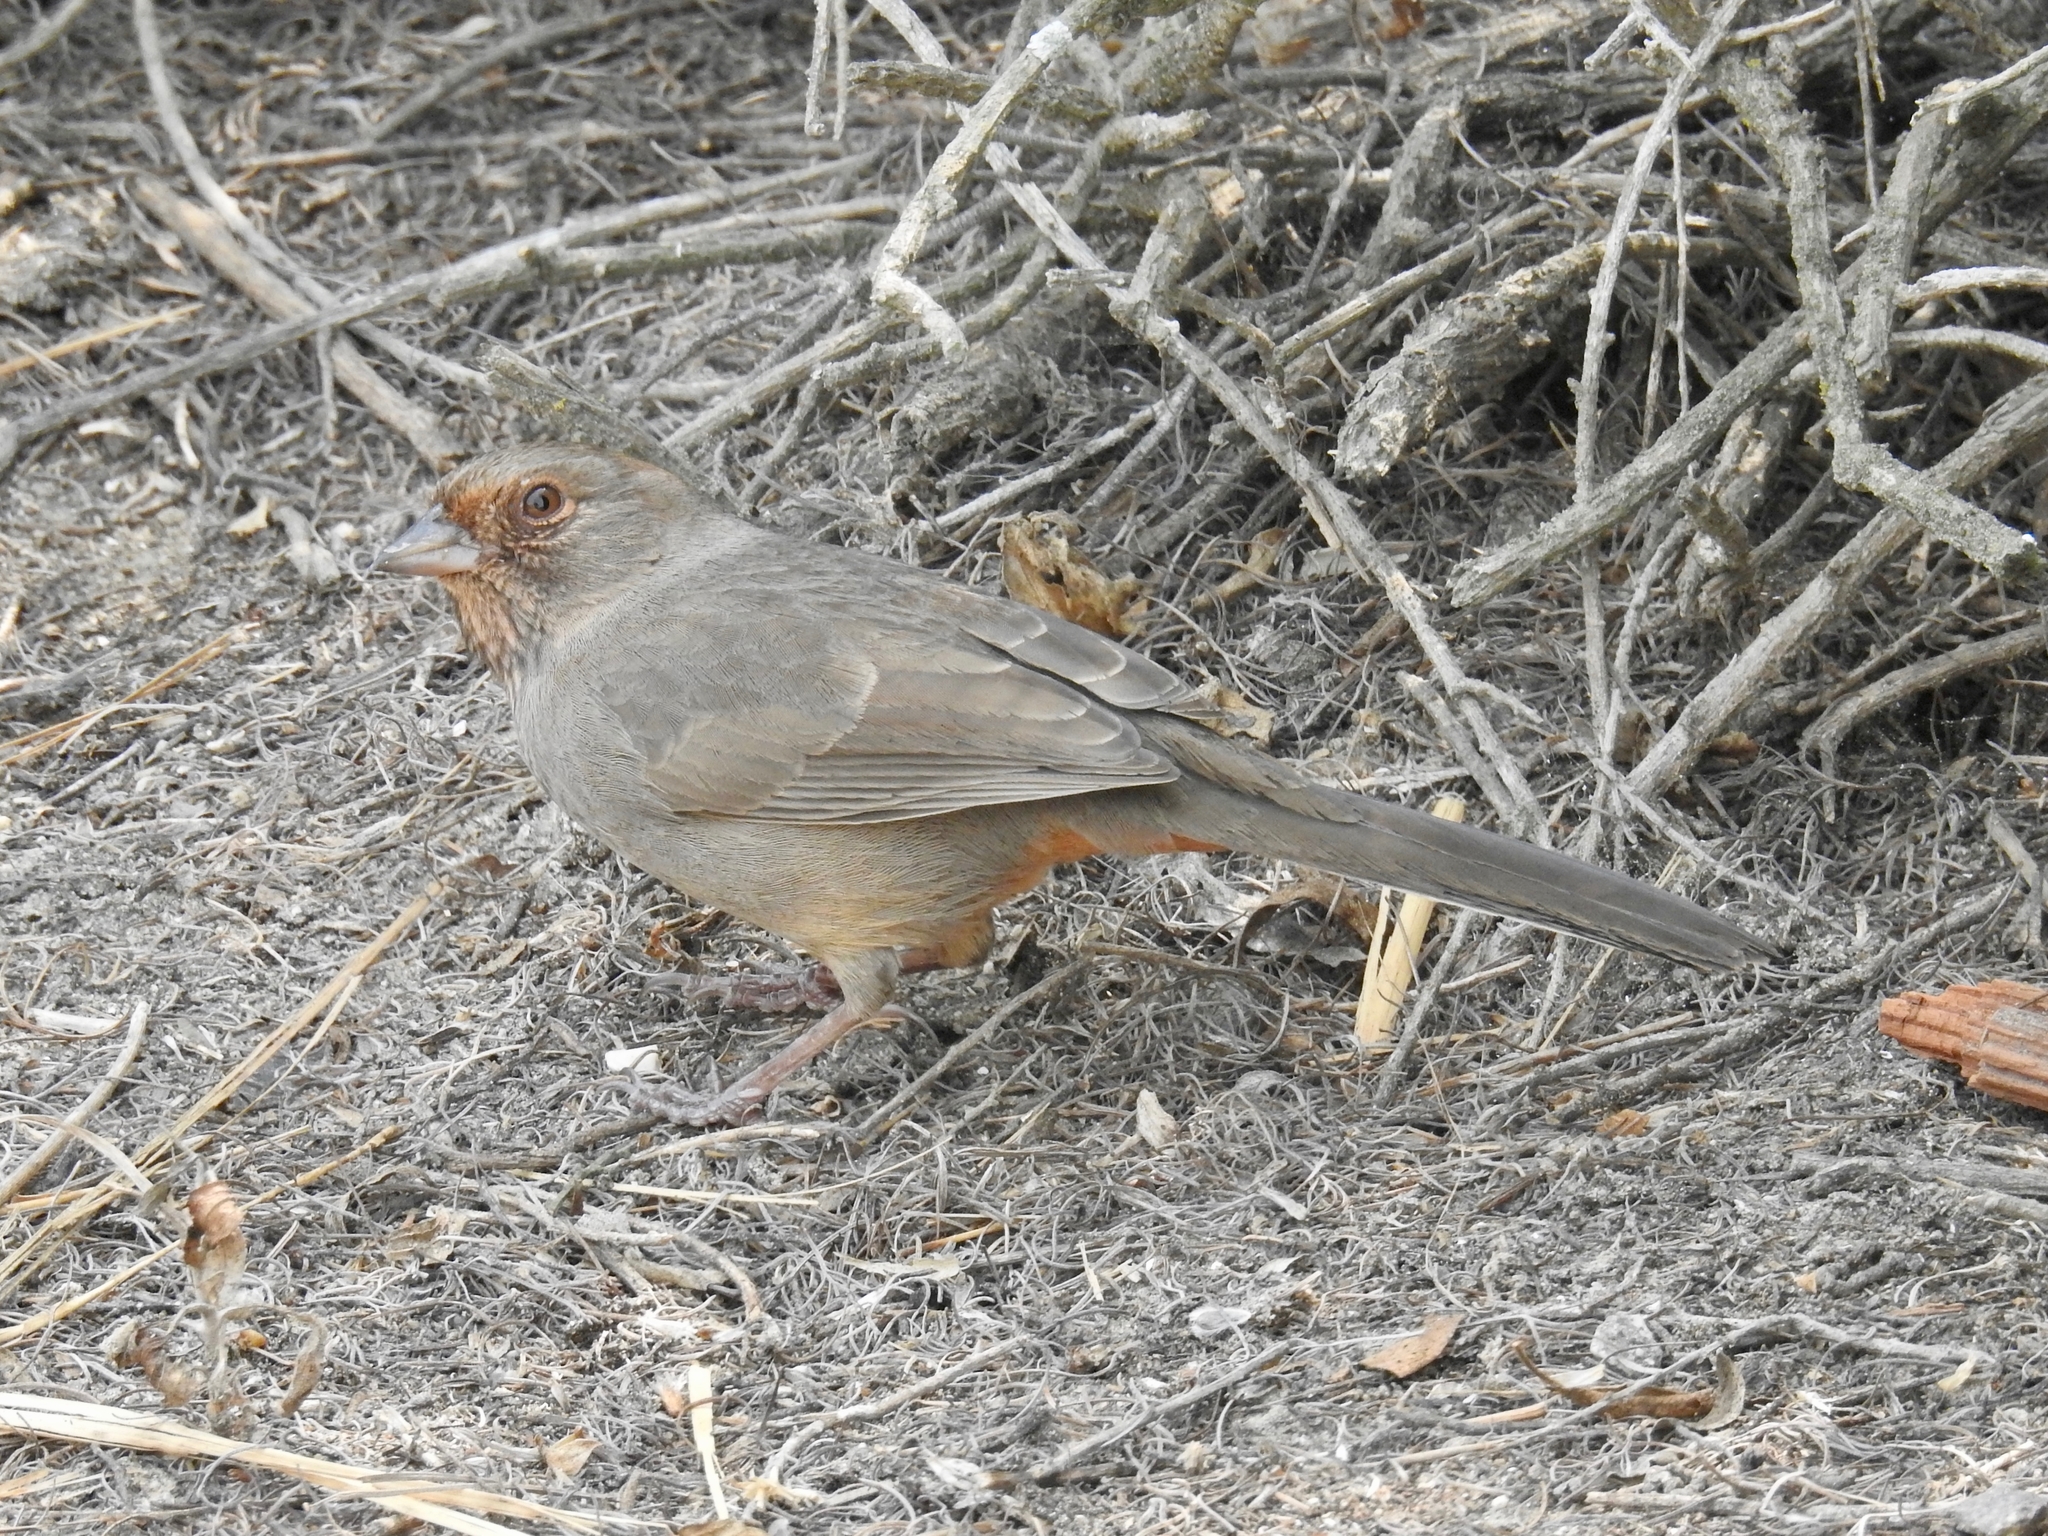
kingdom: Animalia
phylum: Chordata
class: Aves
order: Passeriformes
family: Passerellidae
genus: Melozone
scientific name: Melozone crissalis
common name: California towhee
